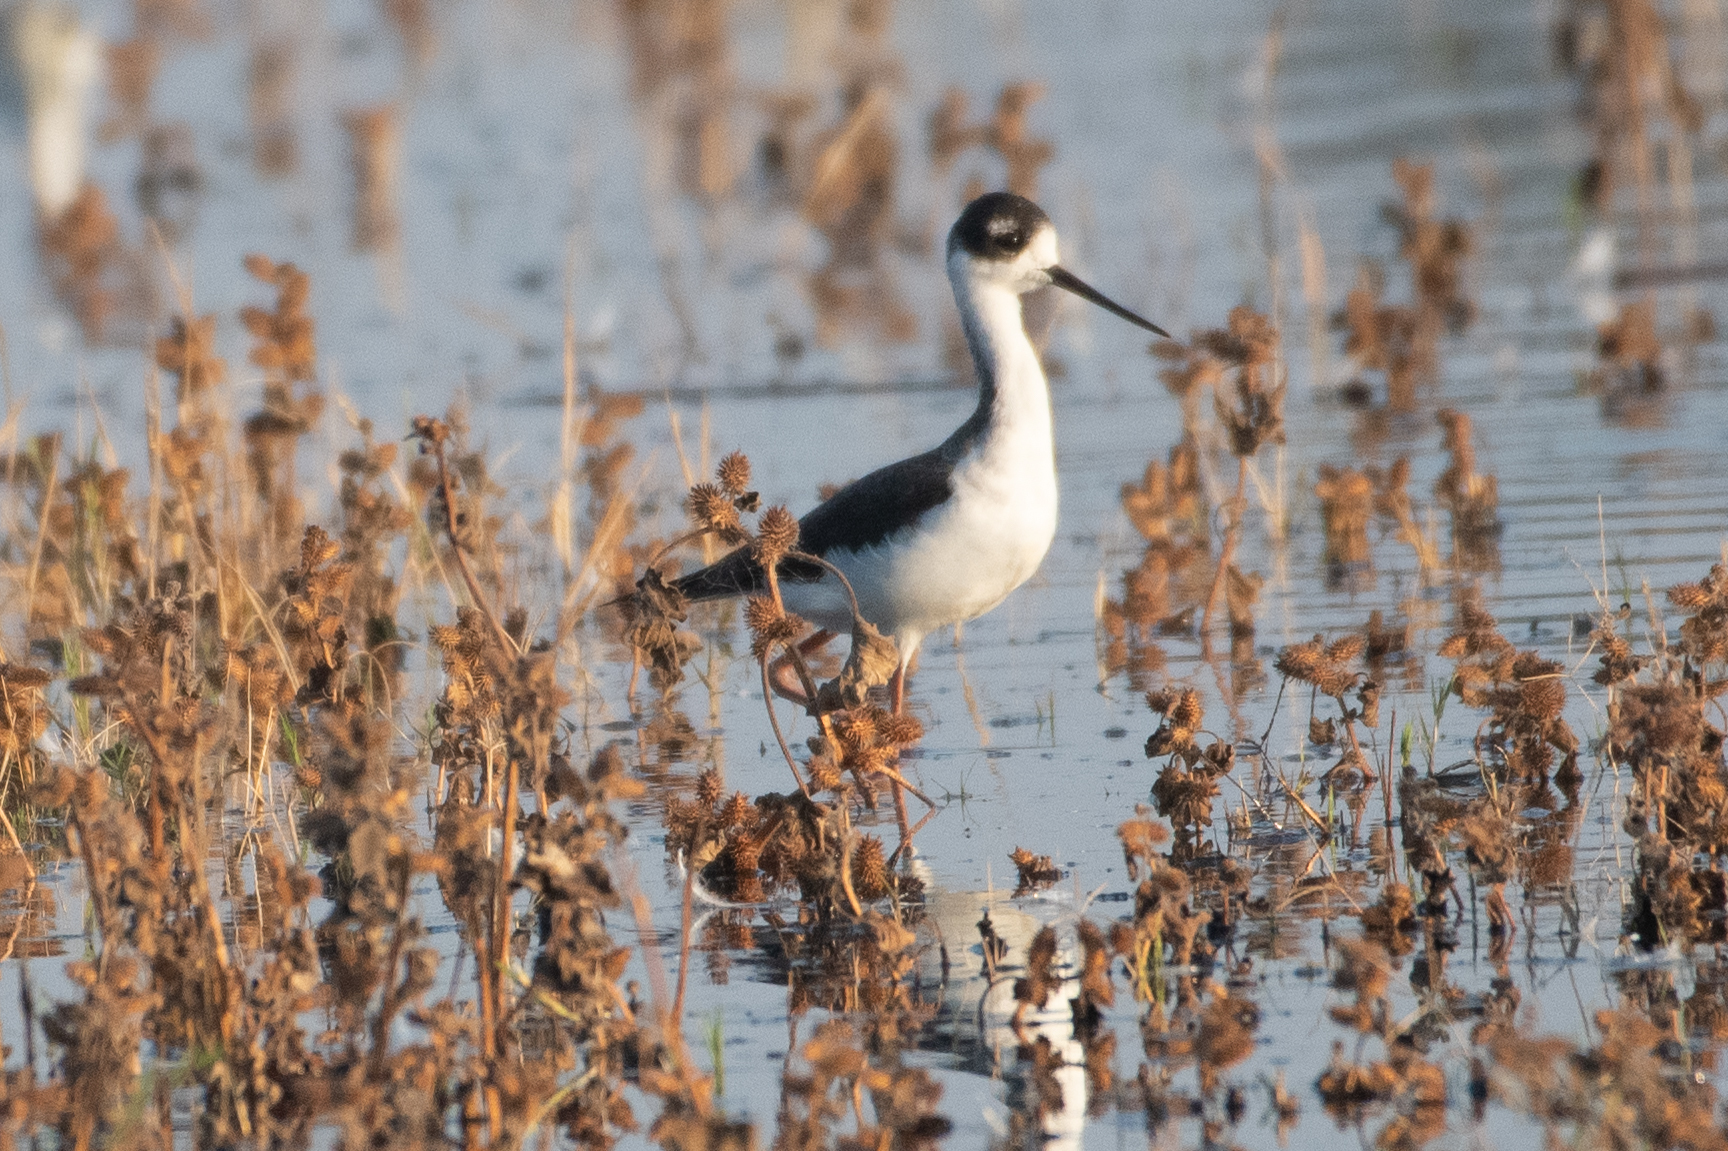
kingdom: Animalia
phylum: Chordata
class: Aves
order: Charadriiformes
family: Recurvirostridae
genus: Himantopus
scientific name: Himantopus mexicanus
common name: Black-necked stilt
